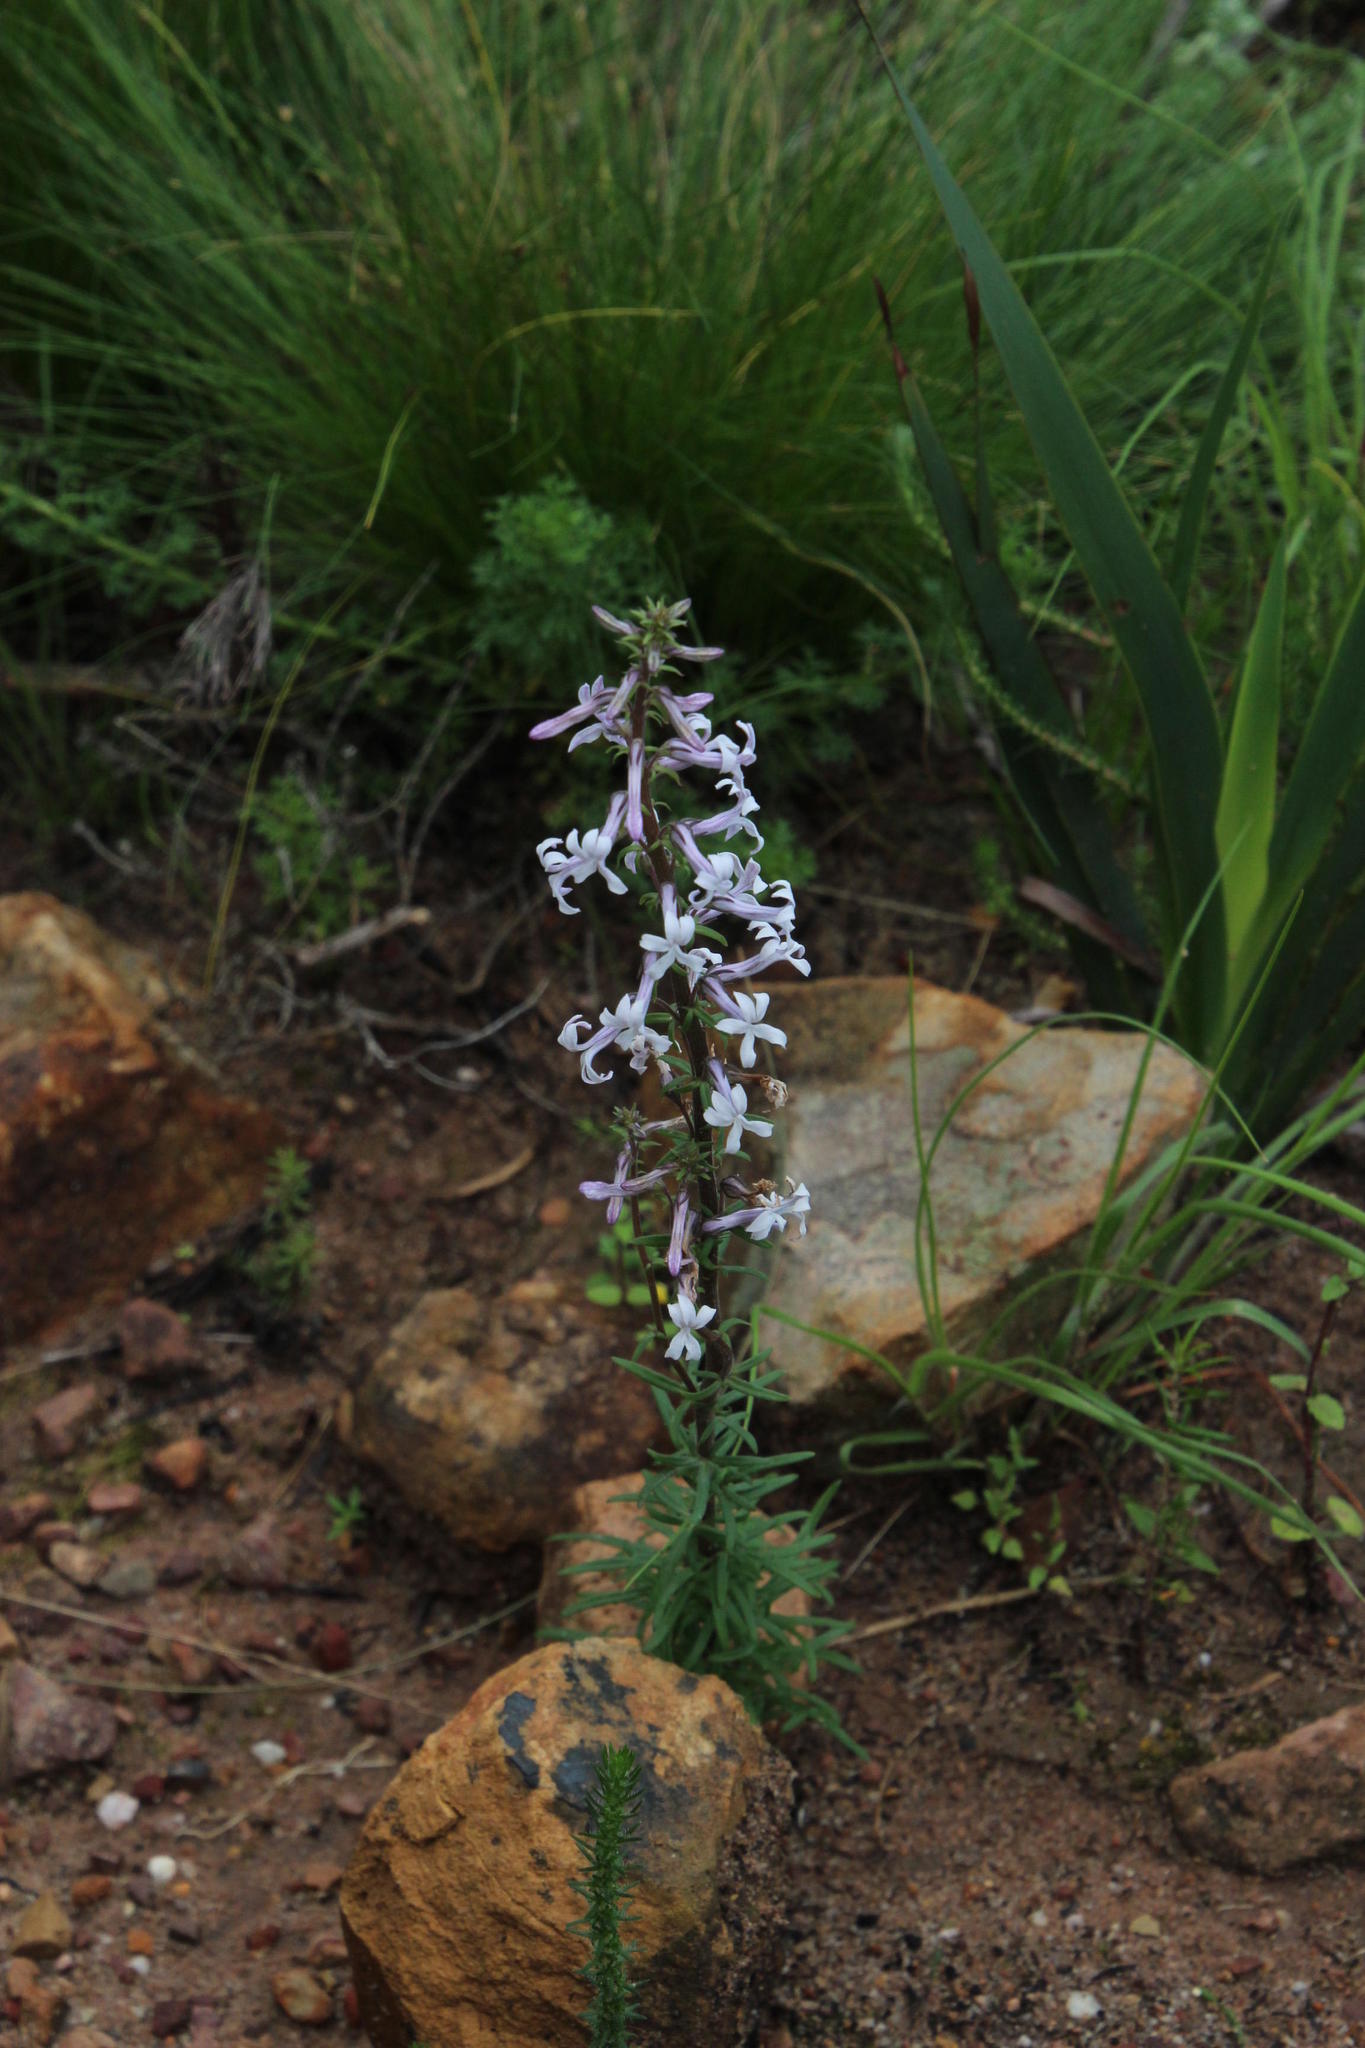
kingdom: Plantae
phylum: Tracheophyta
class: Magnoliopsida
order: Asterales
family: Campanulaceae
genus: Cyphia
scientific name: Cyphia bulbosa
